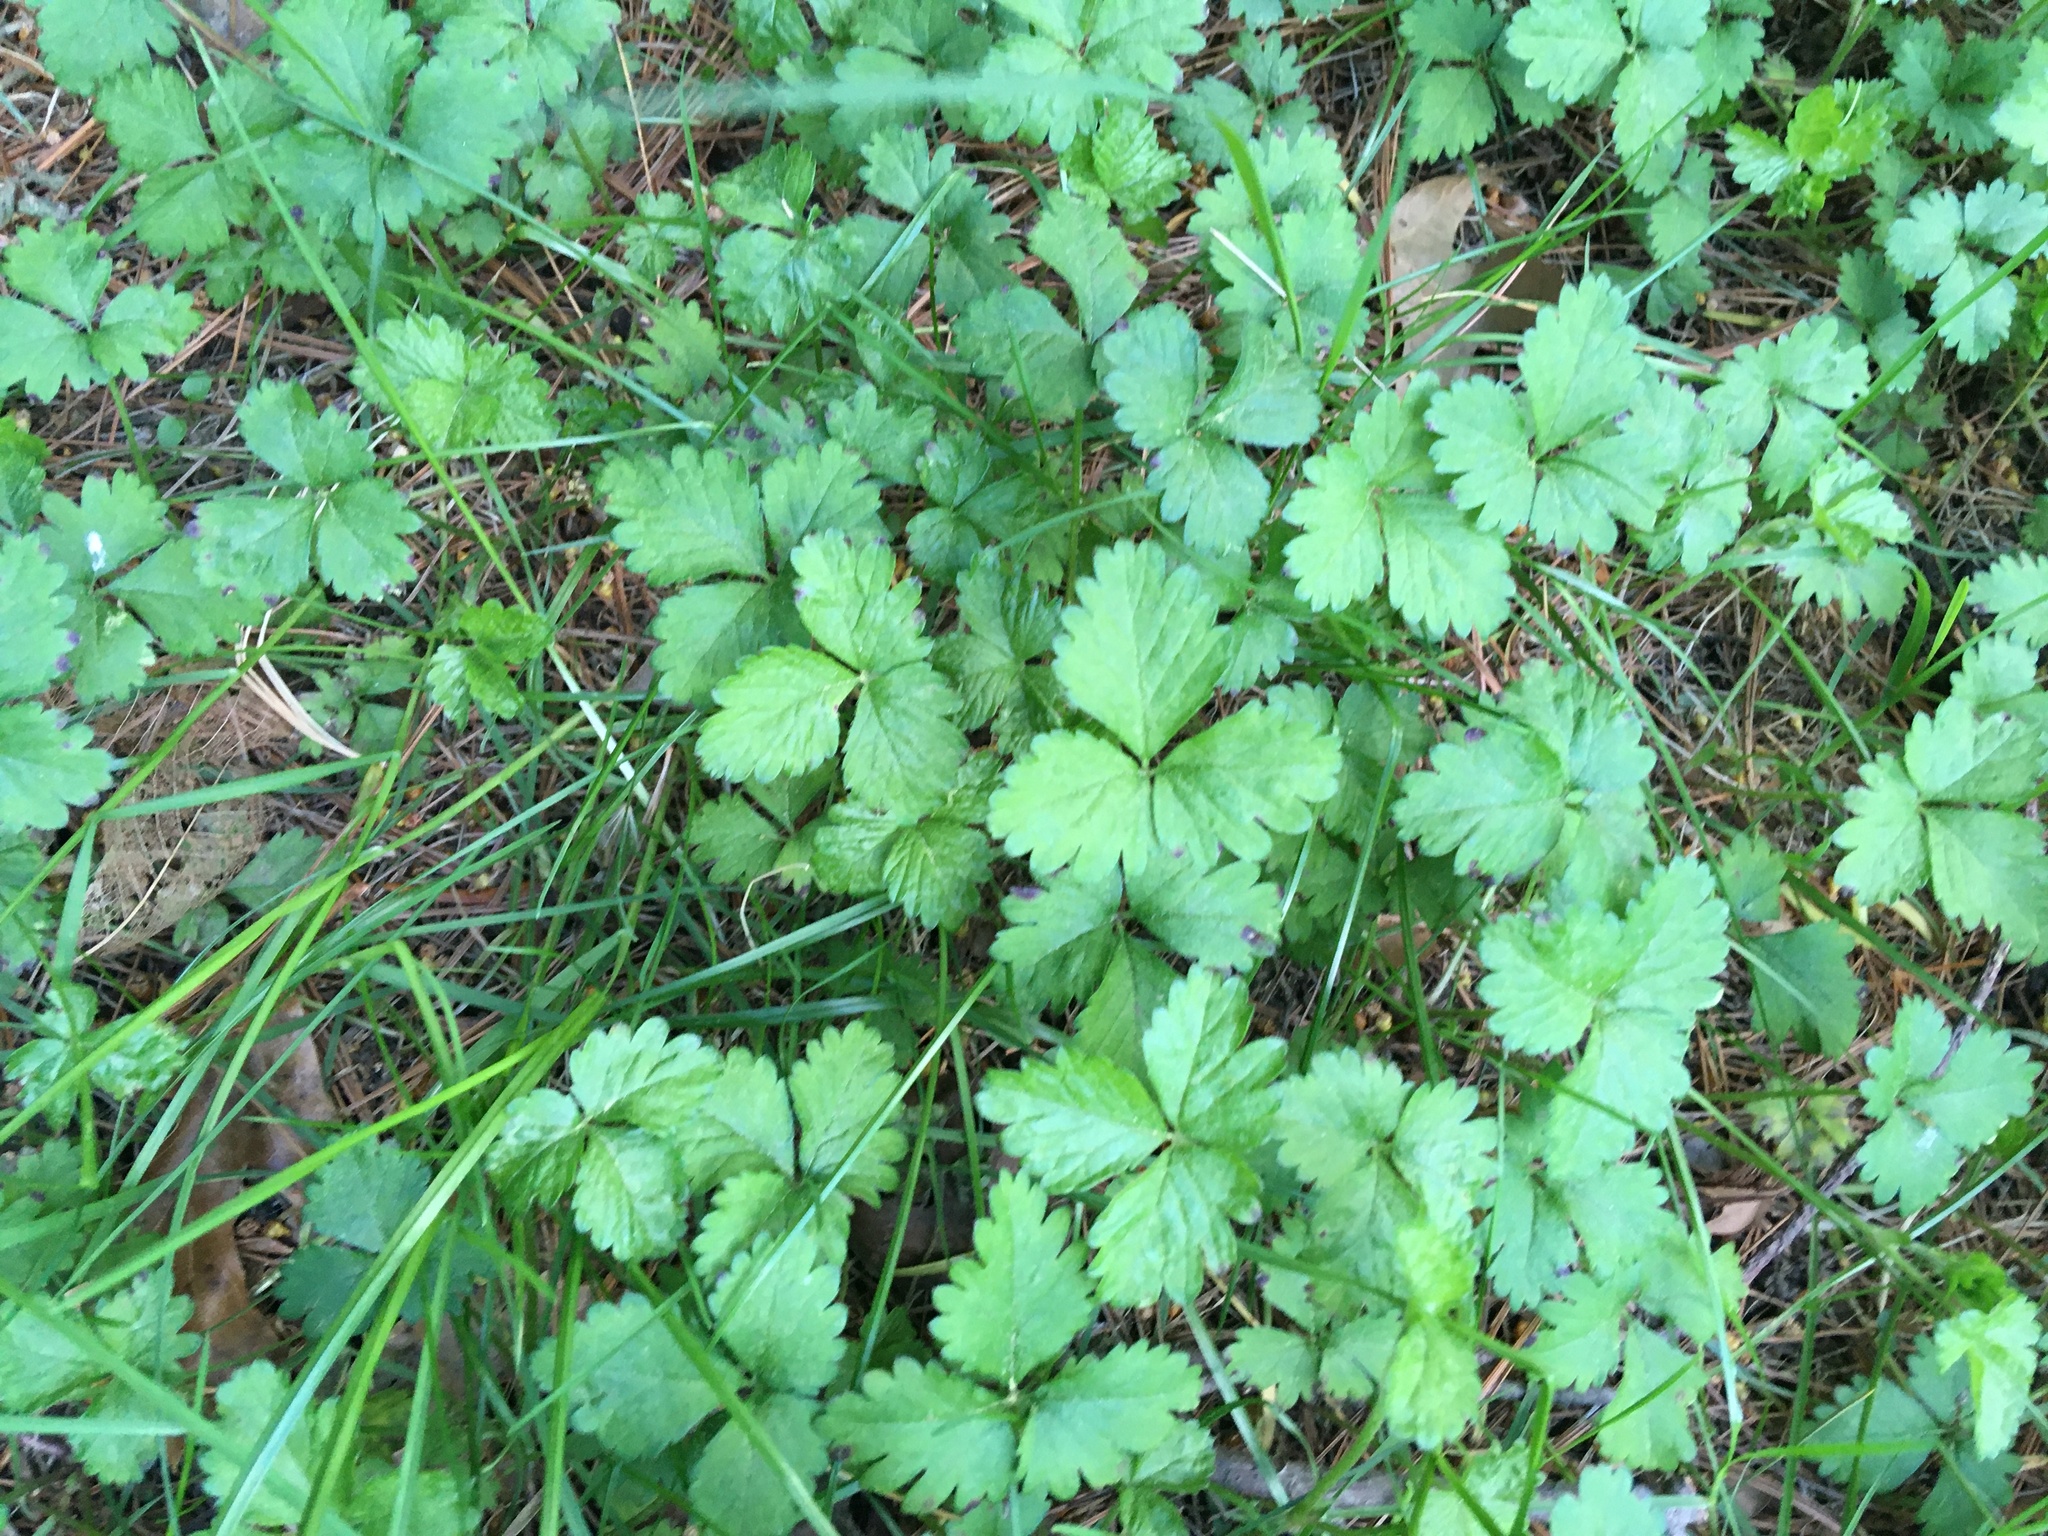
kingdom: Plantae
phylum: Tracheophyta
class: Magnoliopsida
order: Rosales
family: Rosaceae
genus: Potentilla
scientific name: Potentilla indica
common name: Yellow-flowered strawberry
